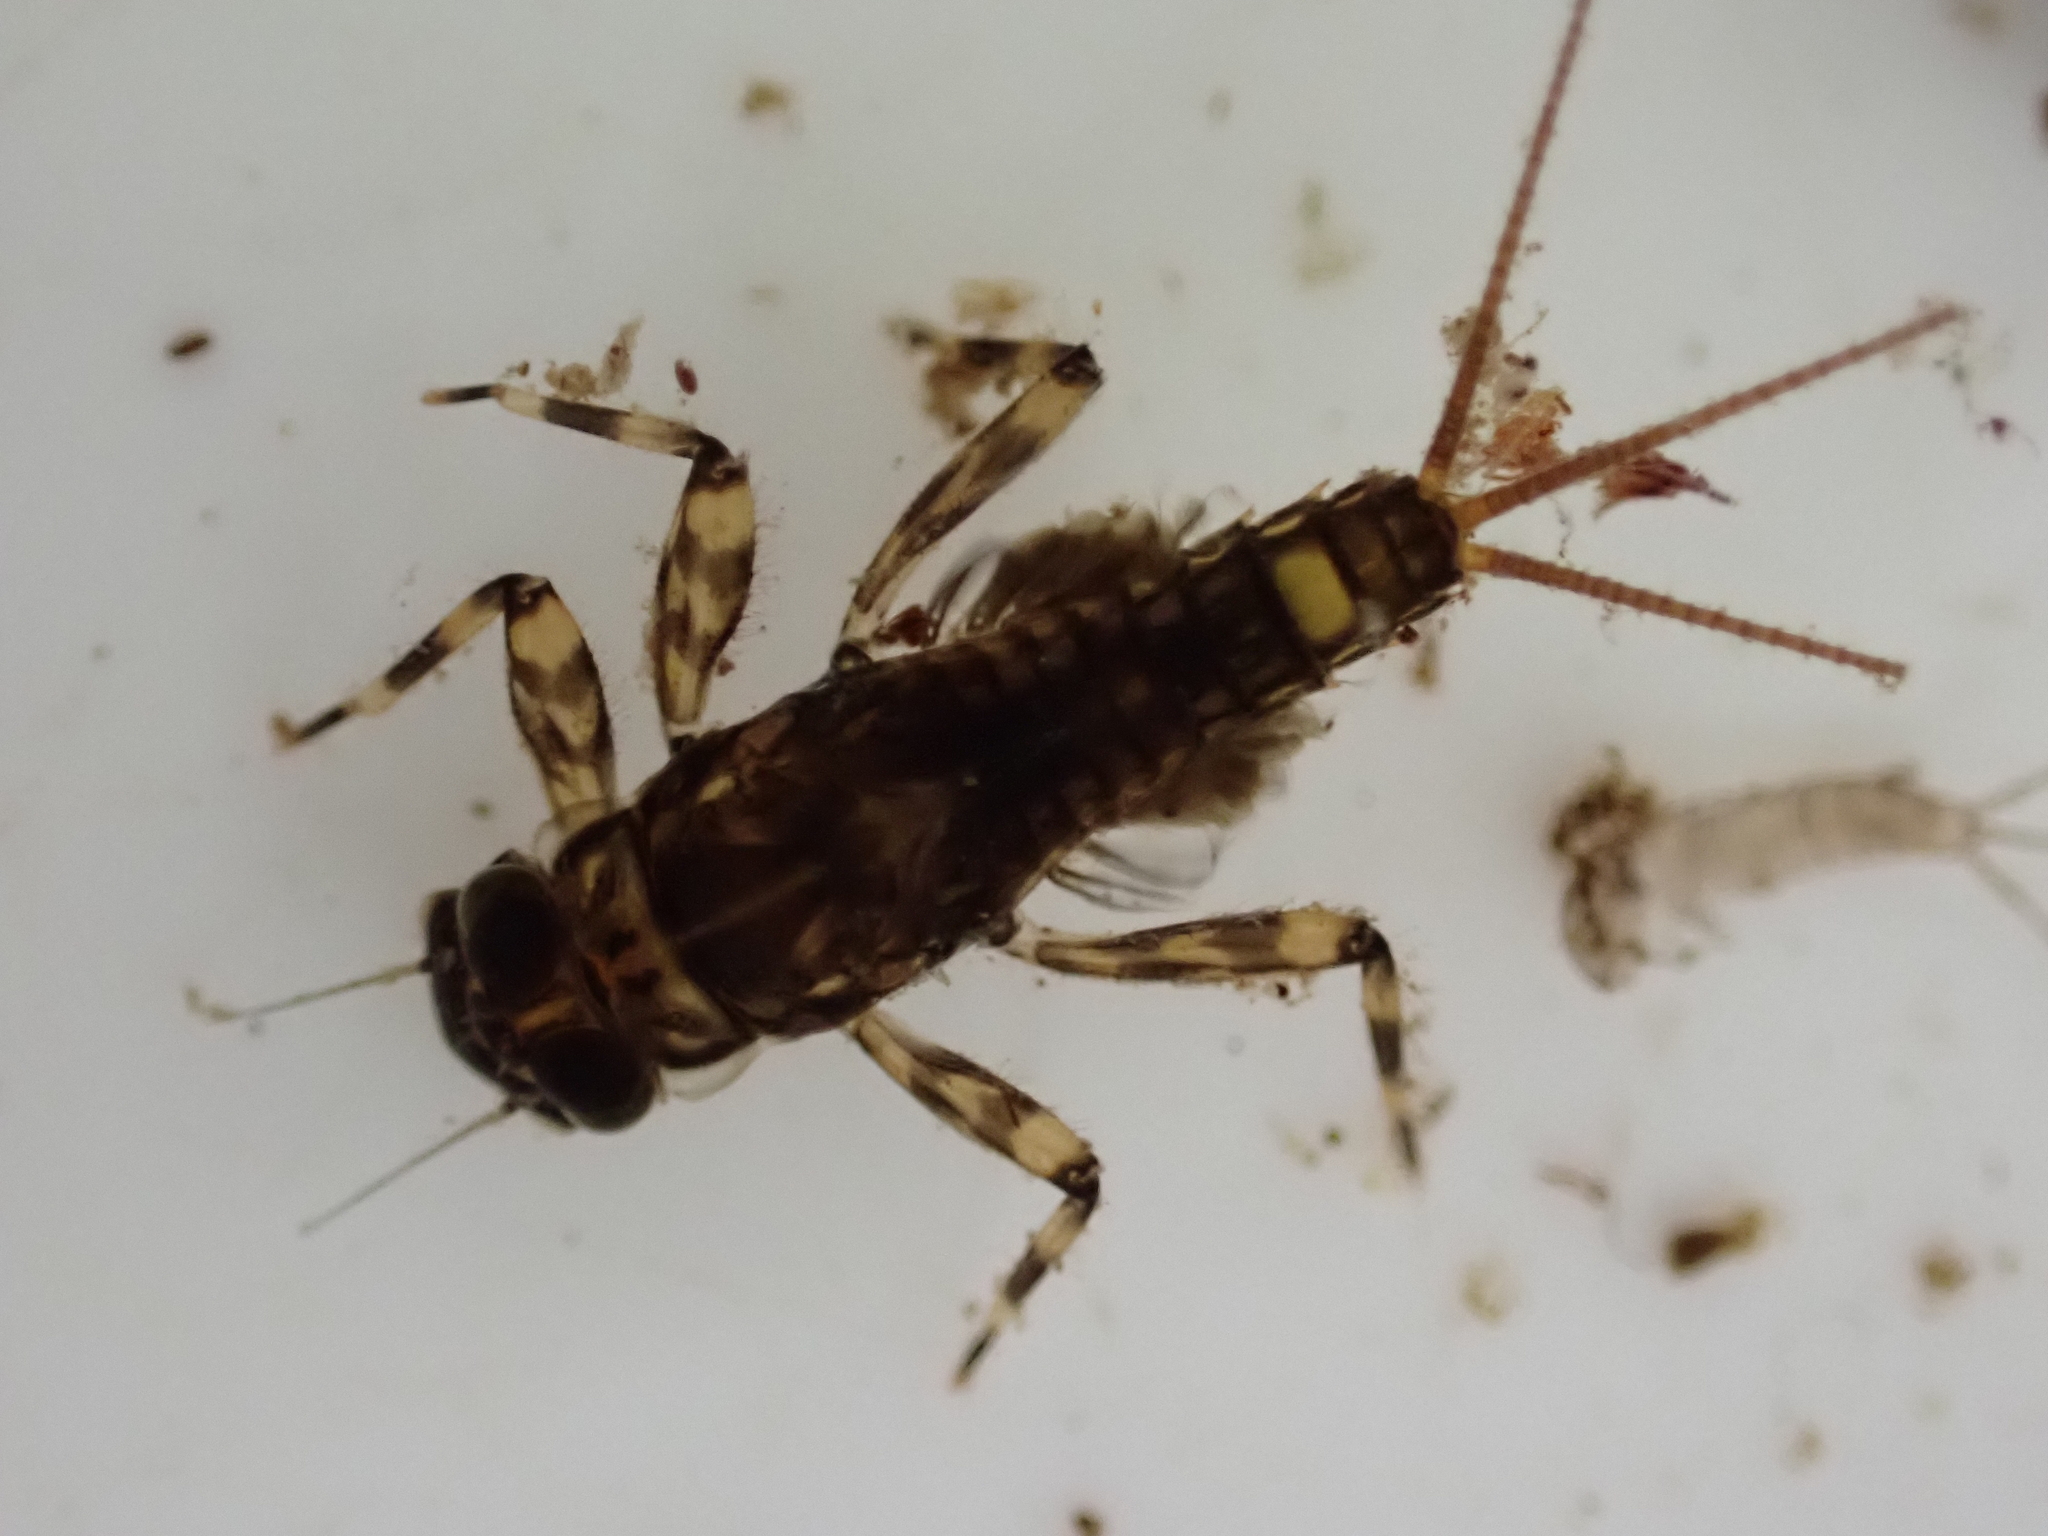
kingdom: Animalia
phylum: Arthropoda
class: Insecta
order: Ephemeroptera
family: Leptophlebiidae
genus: Zephlebia
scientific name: Zephlebia spectabilis
